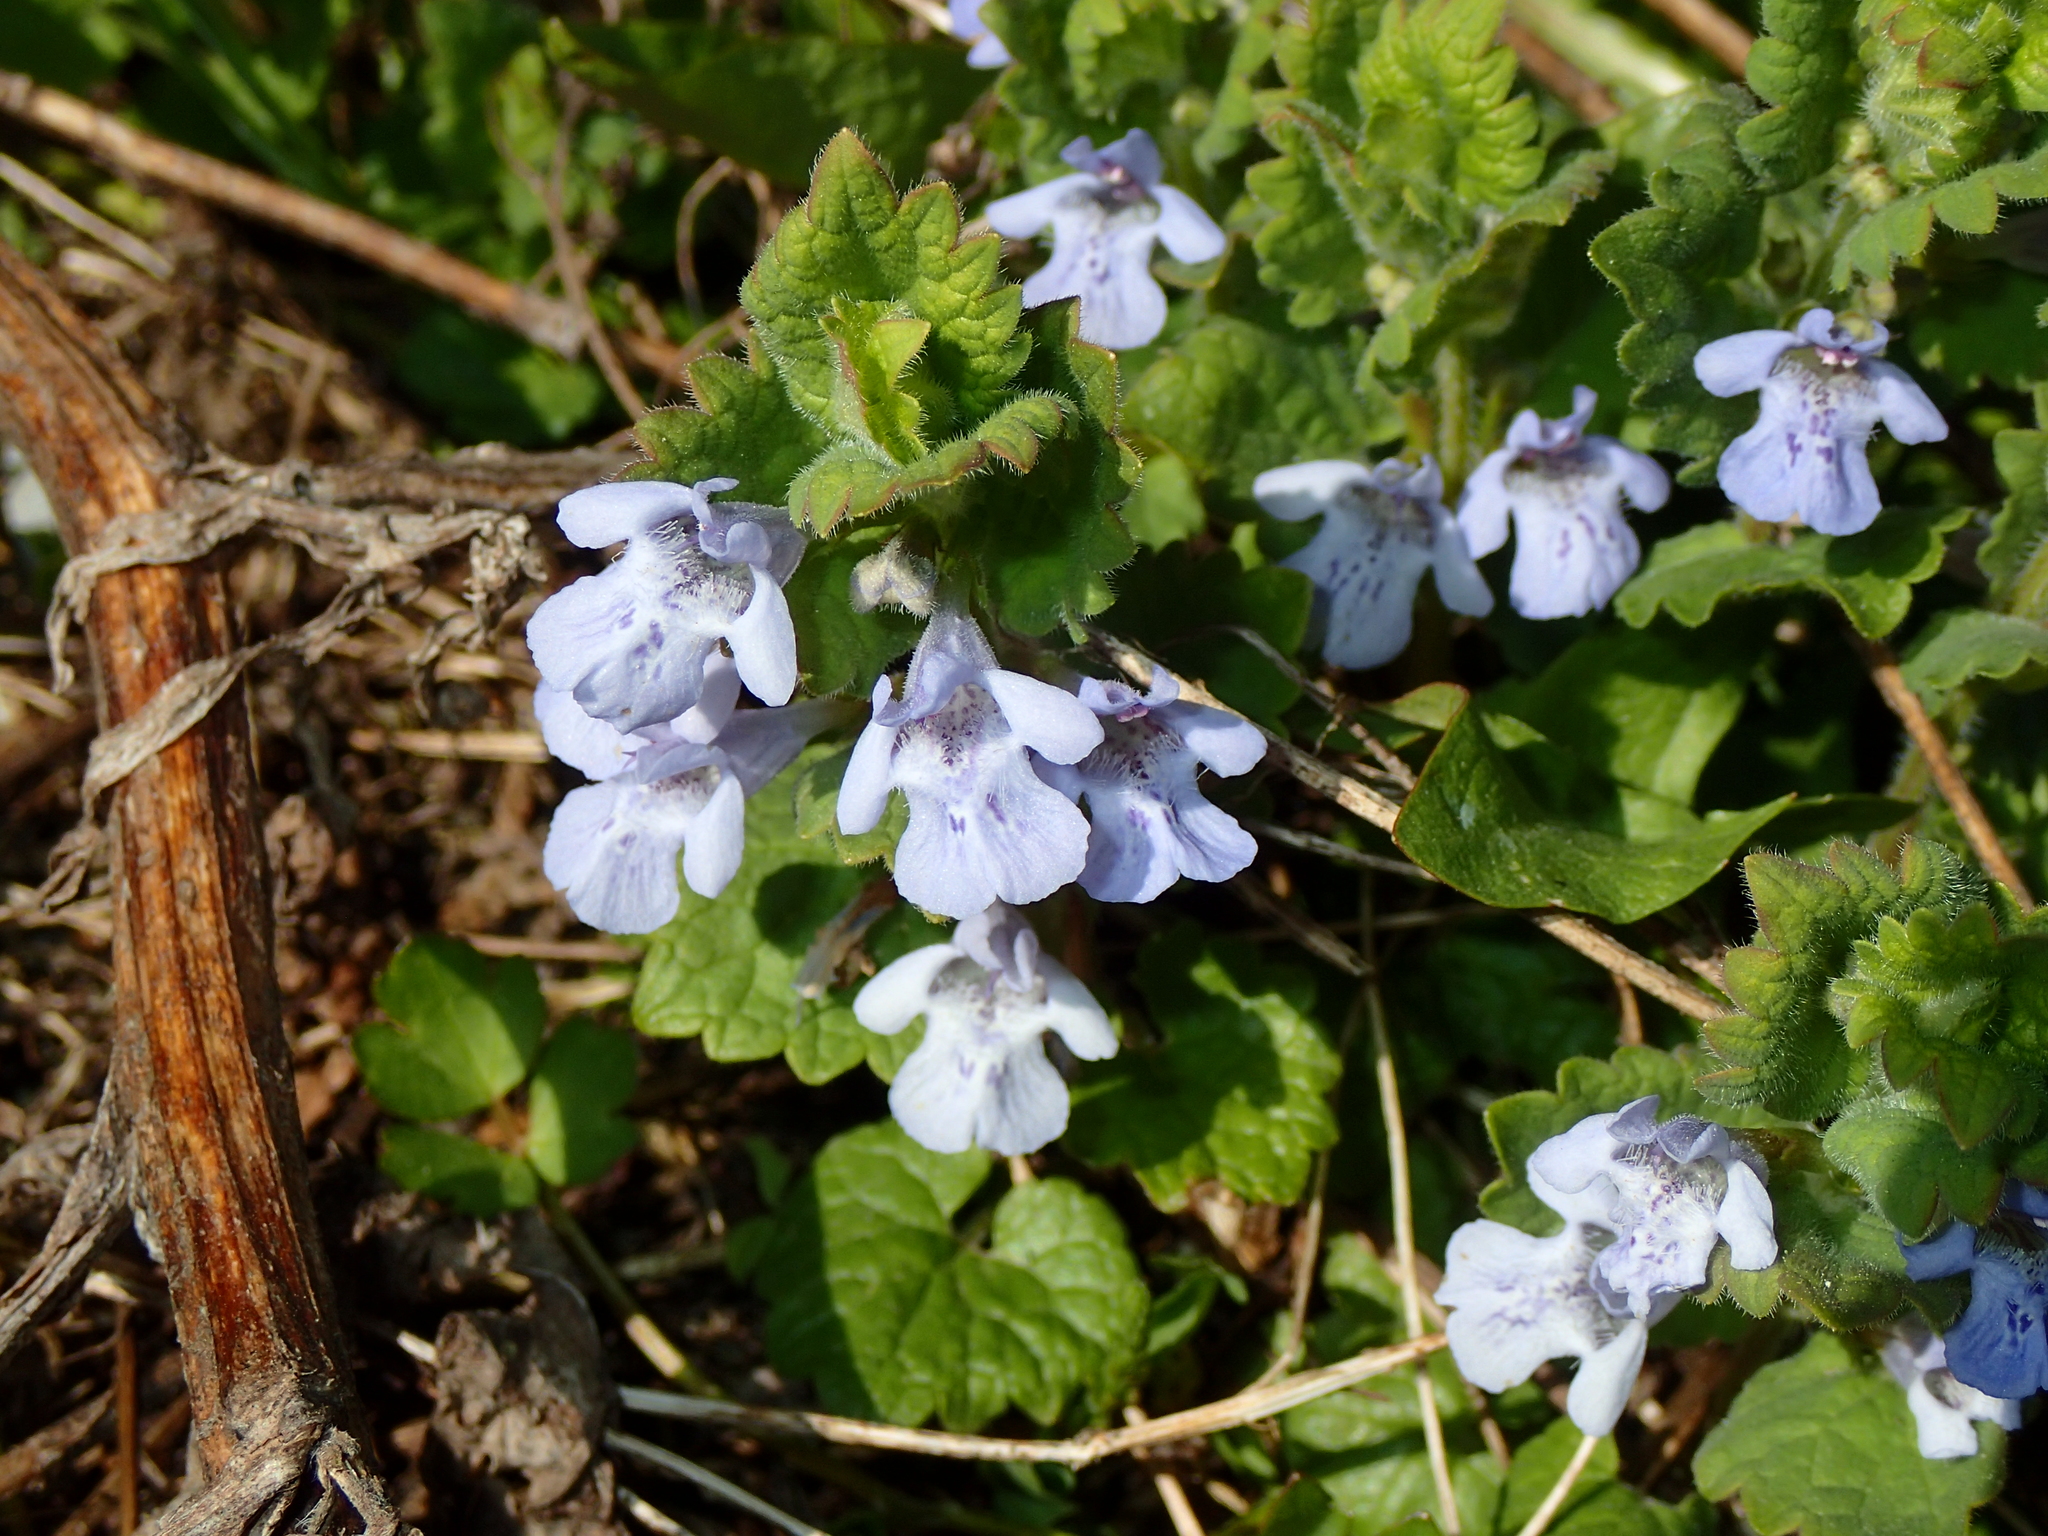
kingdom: Plantae
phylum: Tracheophyta
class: Magnoliopsida
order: Lamiales
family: Lamiaceae
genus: Glechoma
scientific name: Glechoma hederacea
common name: Ground ivy
